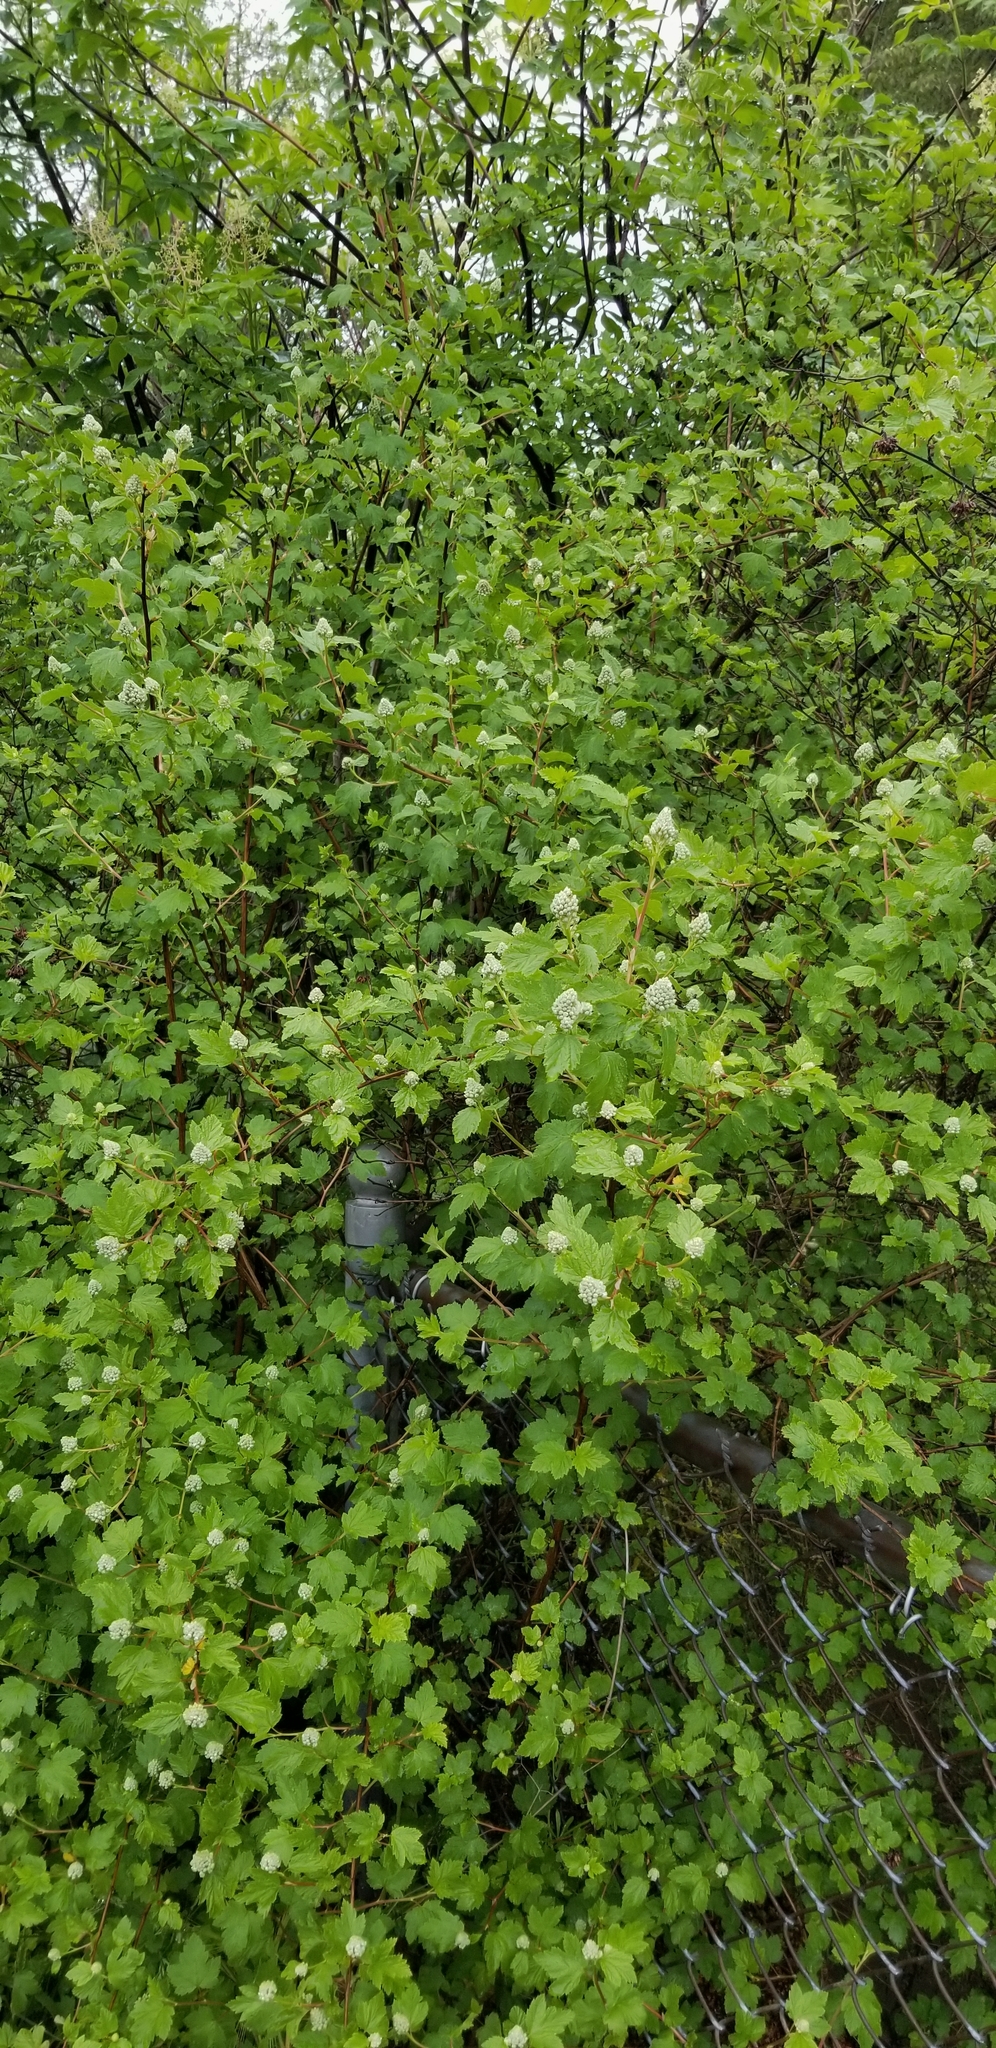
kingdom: Plantae
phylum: Tracheophyta
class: Magnoliopsida
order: Rosales
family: Rosaceae
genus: Physocarpus
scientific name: Physocarpus capitatus
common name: Pacific ninebark
